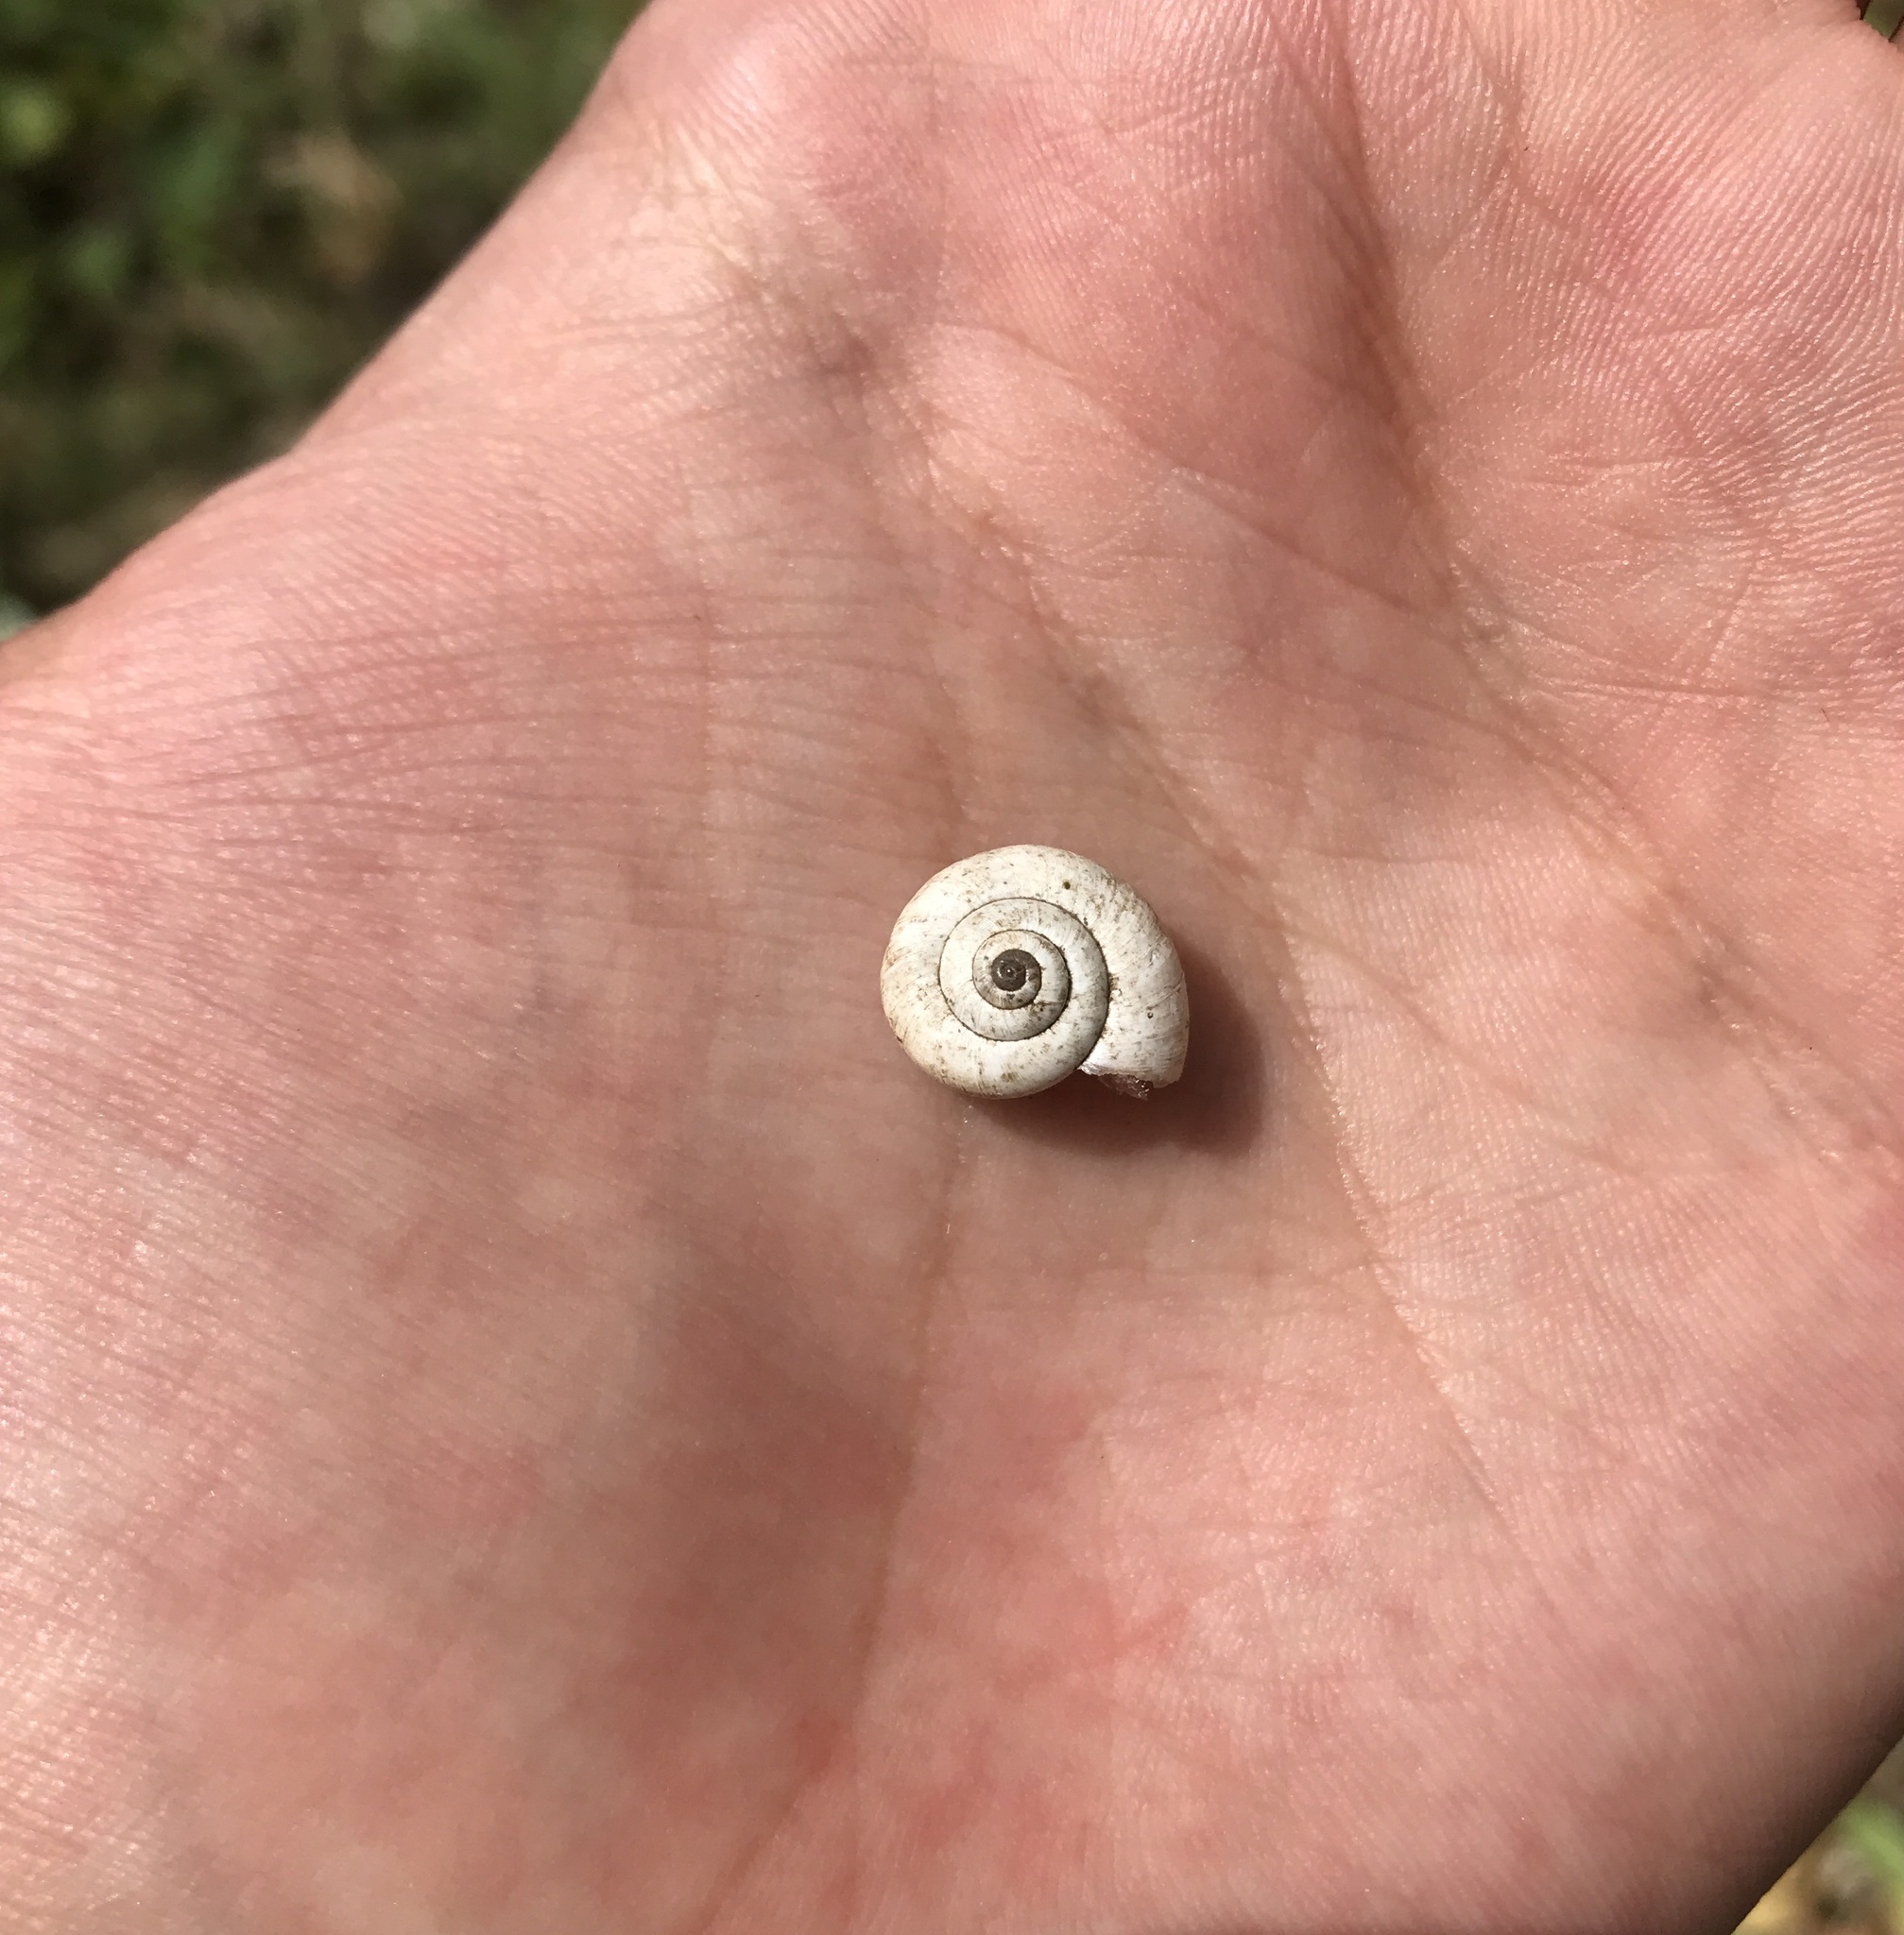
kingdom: Animalia
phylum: Mollusca
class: Gastropoda
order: Stylommatophora
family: Geomitridae
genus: Xeropicta
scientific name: Xeropicta derbentina
